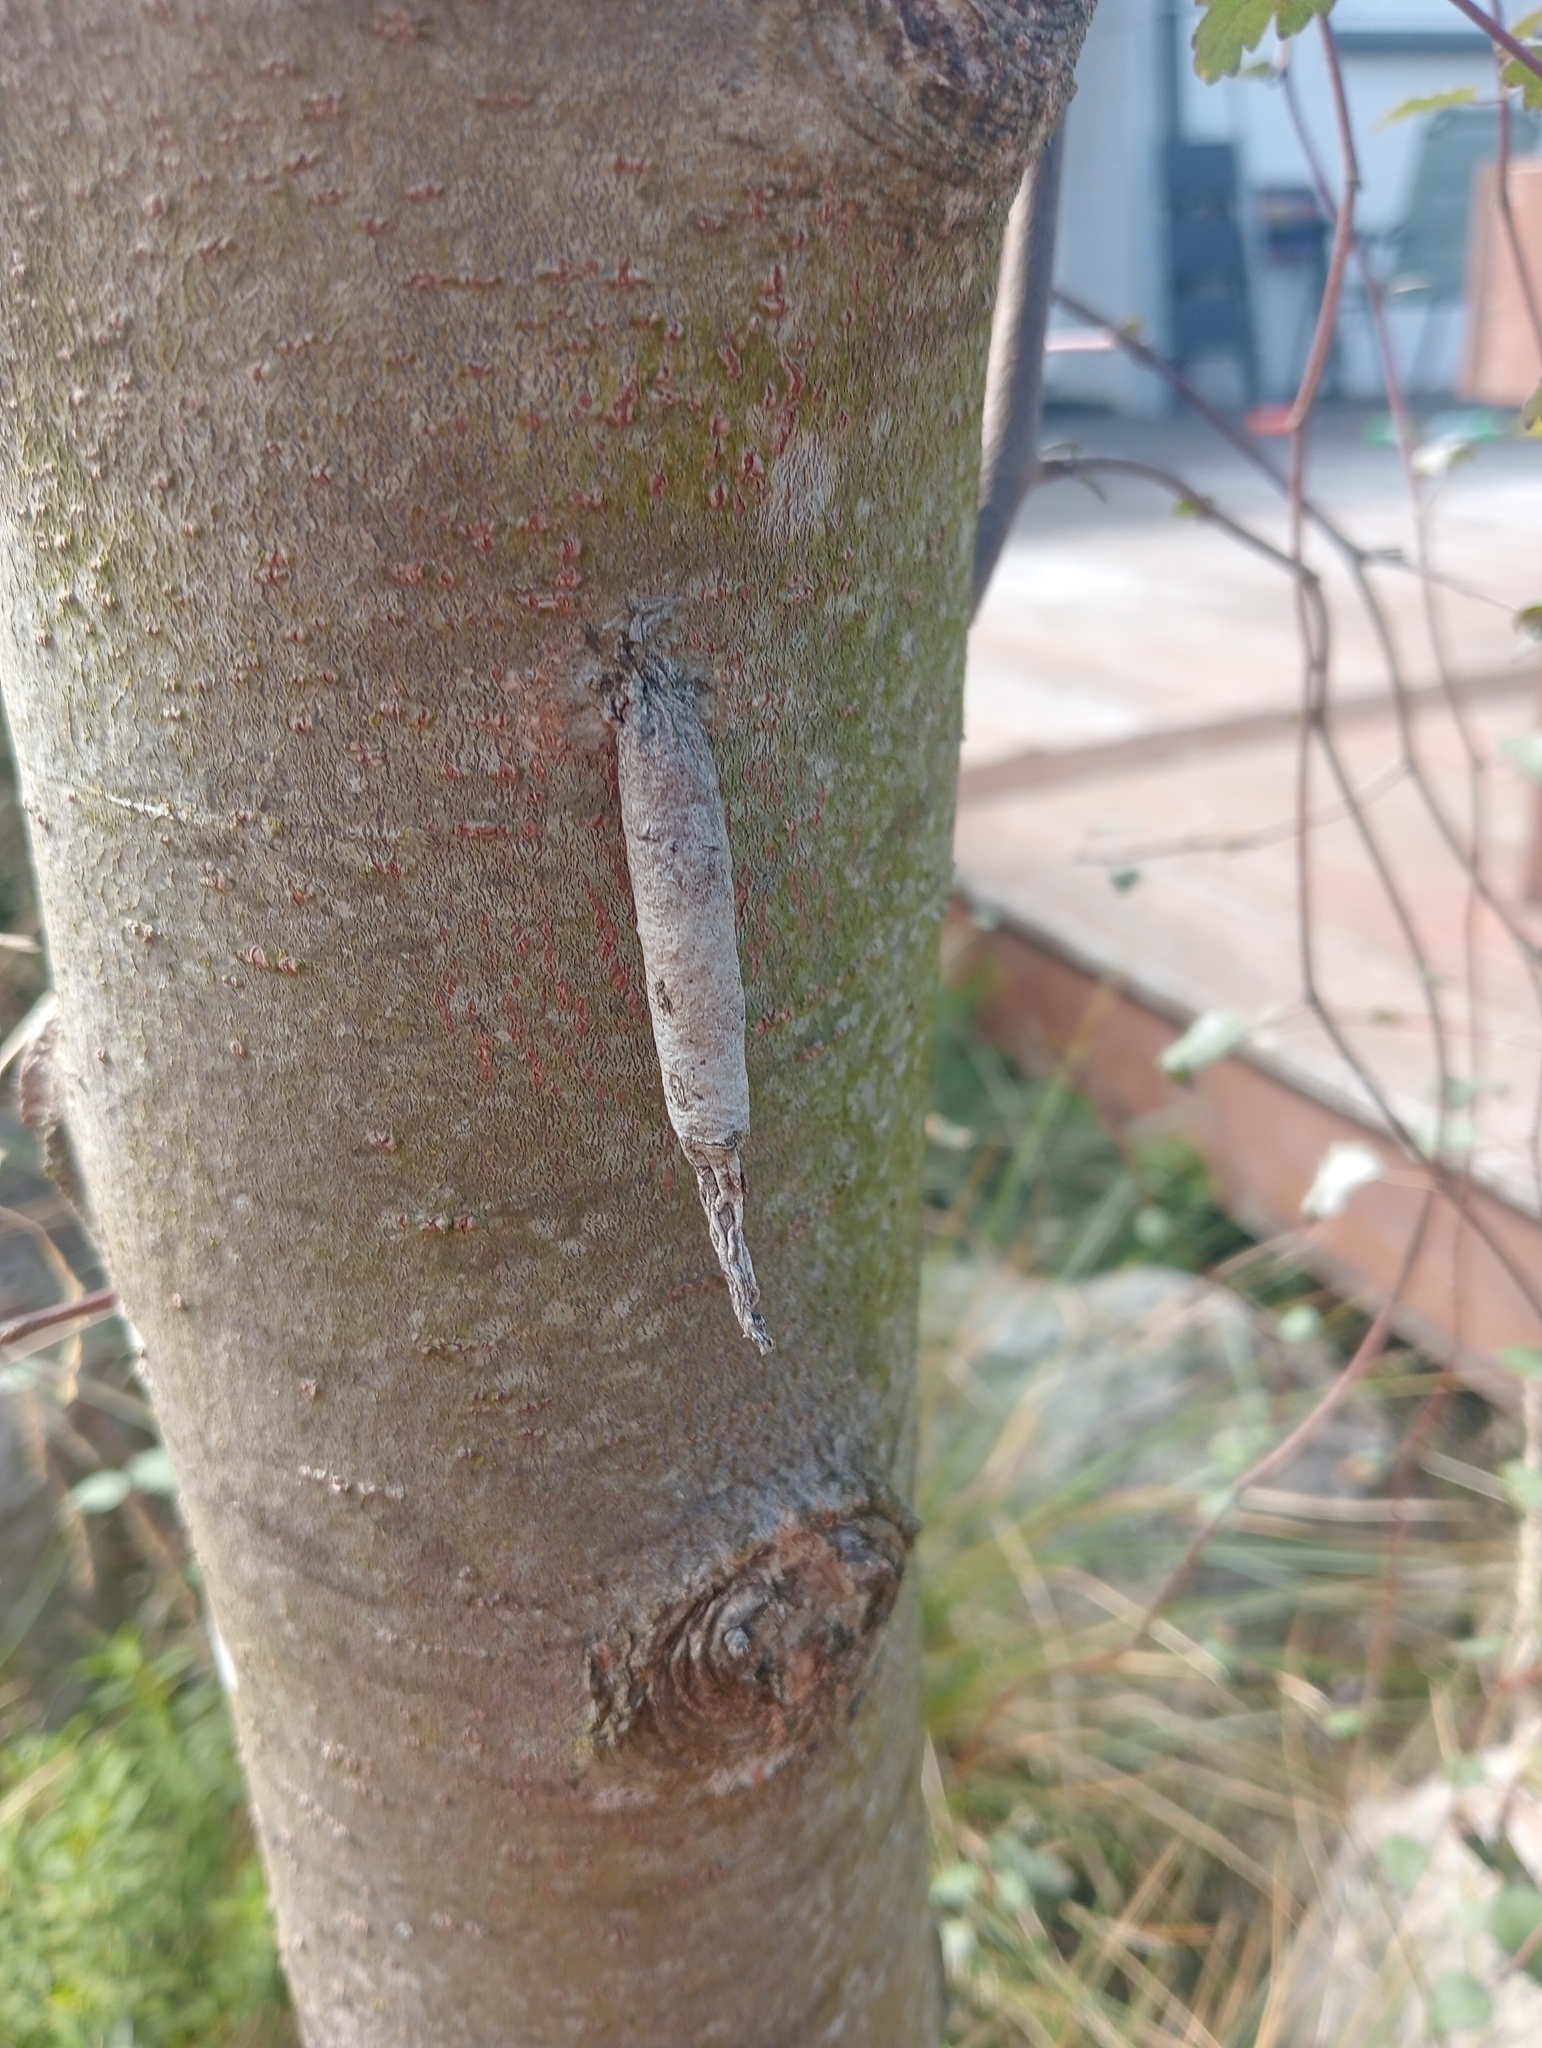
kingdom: Animalia
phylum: Arthropoda
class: Insecta
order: Lepidoptera
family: Psychidae
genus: Liothula
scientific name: Liothula omnivora
